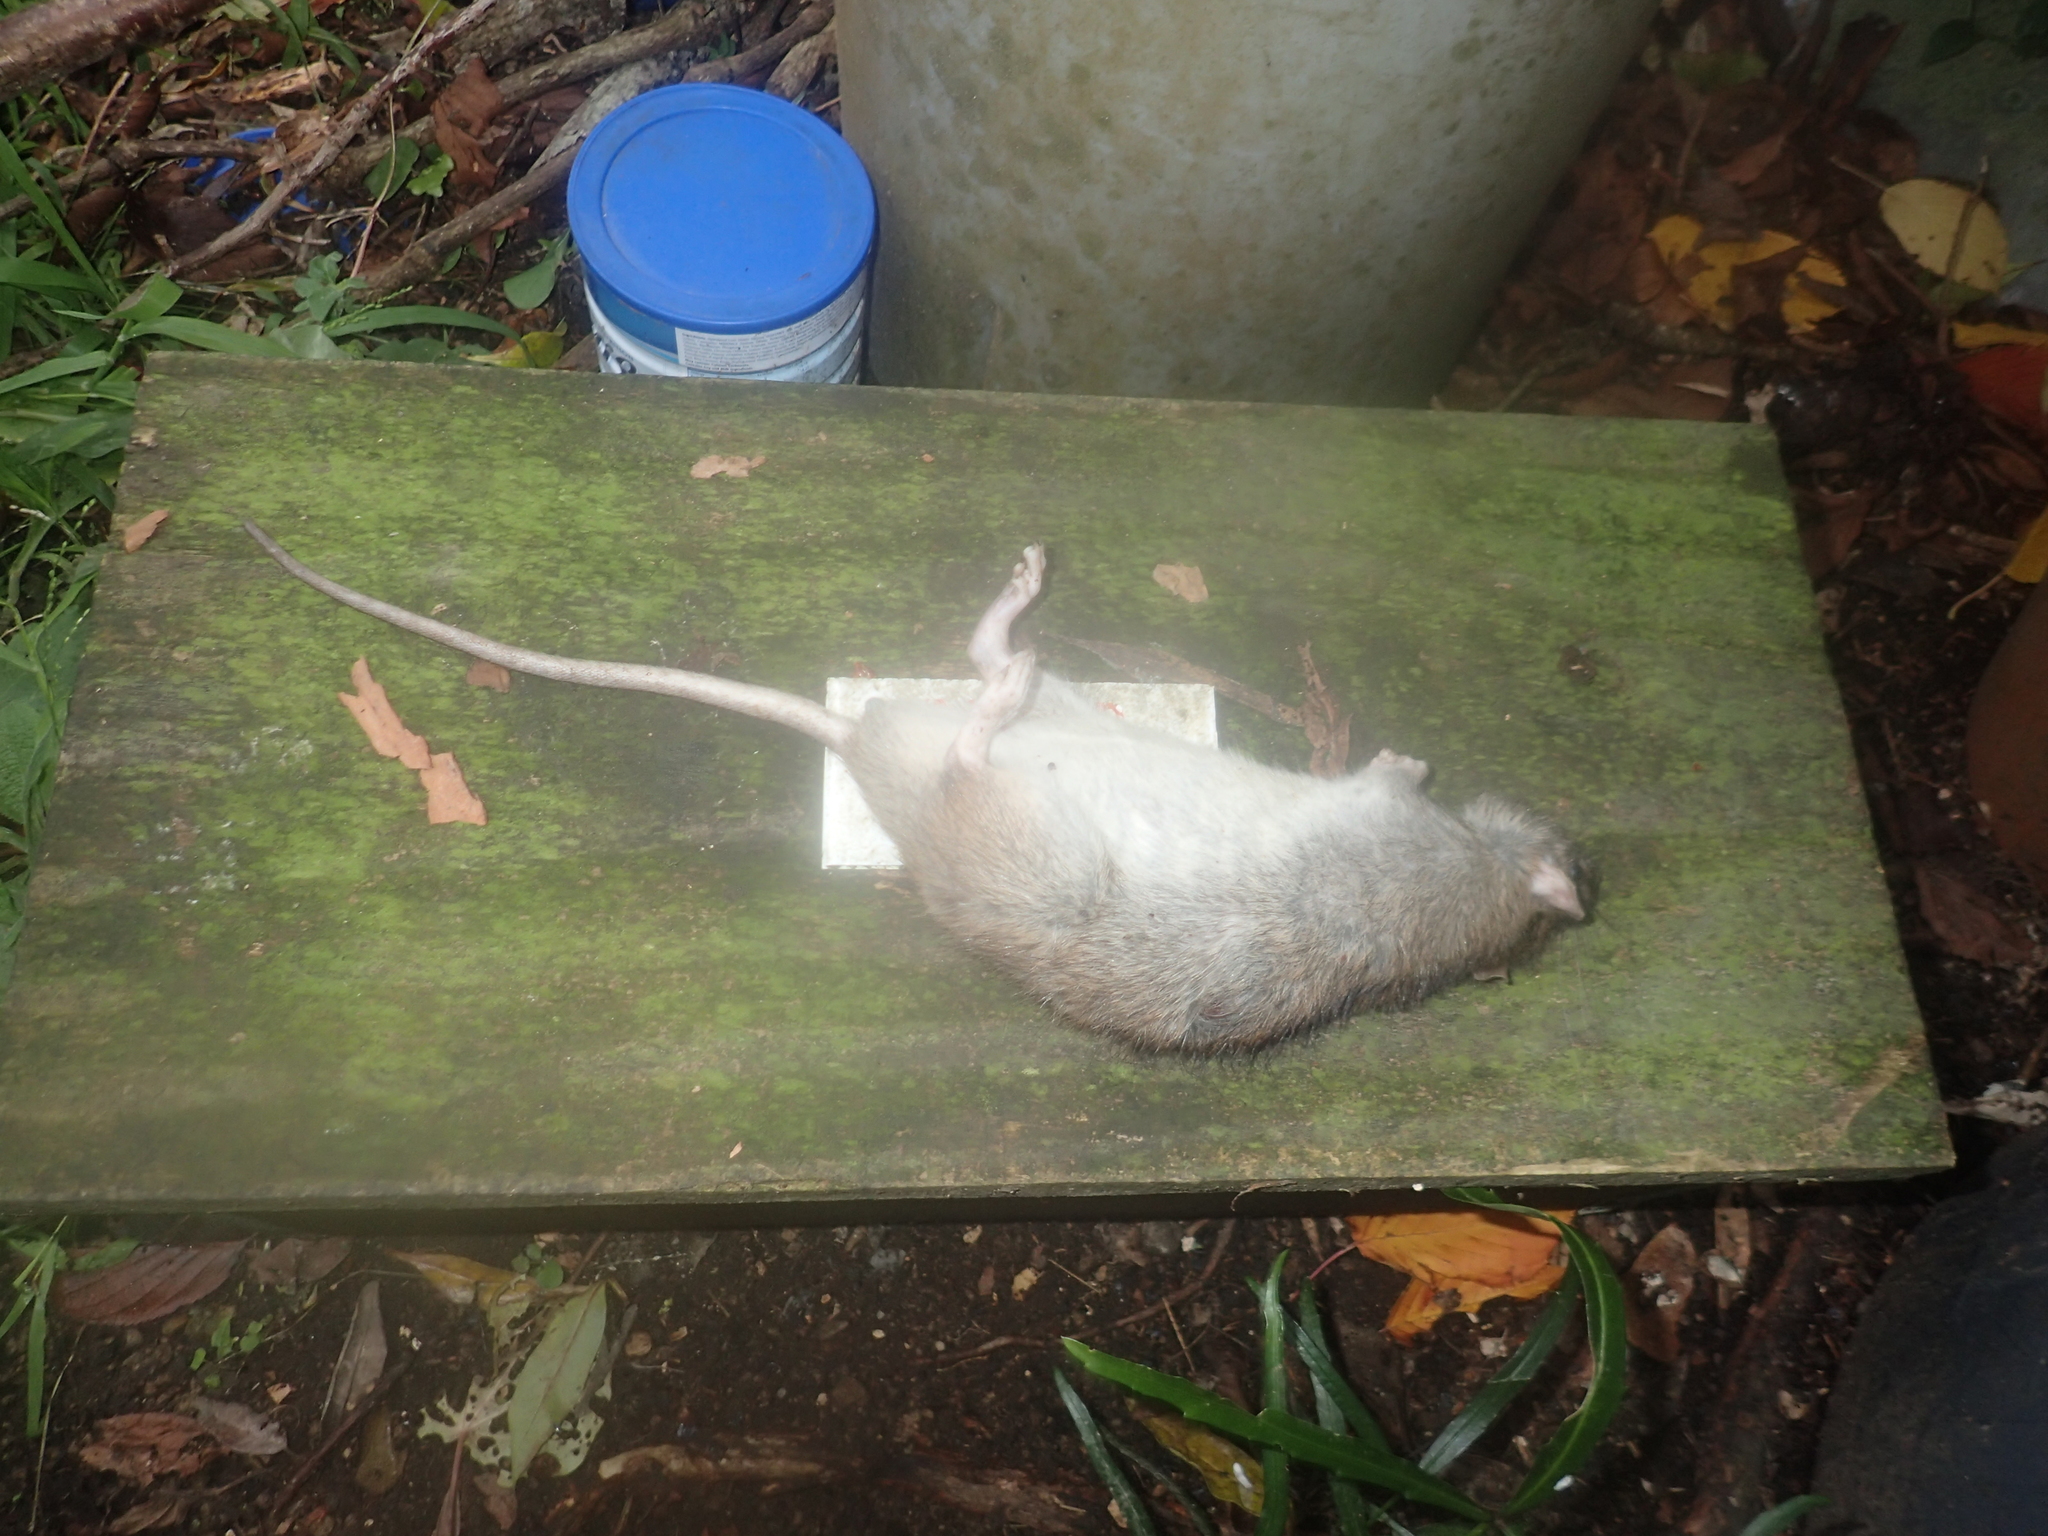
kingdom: Animalia
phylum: Chordata
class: Mammalia
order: Rodentia
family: Muridae
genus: Rattus
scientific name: Rattus norvegicus
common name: Brown rat
